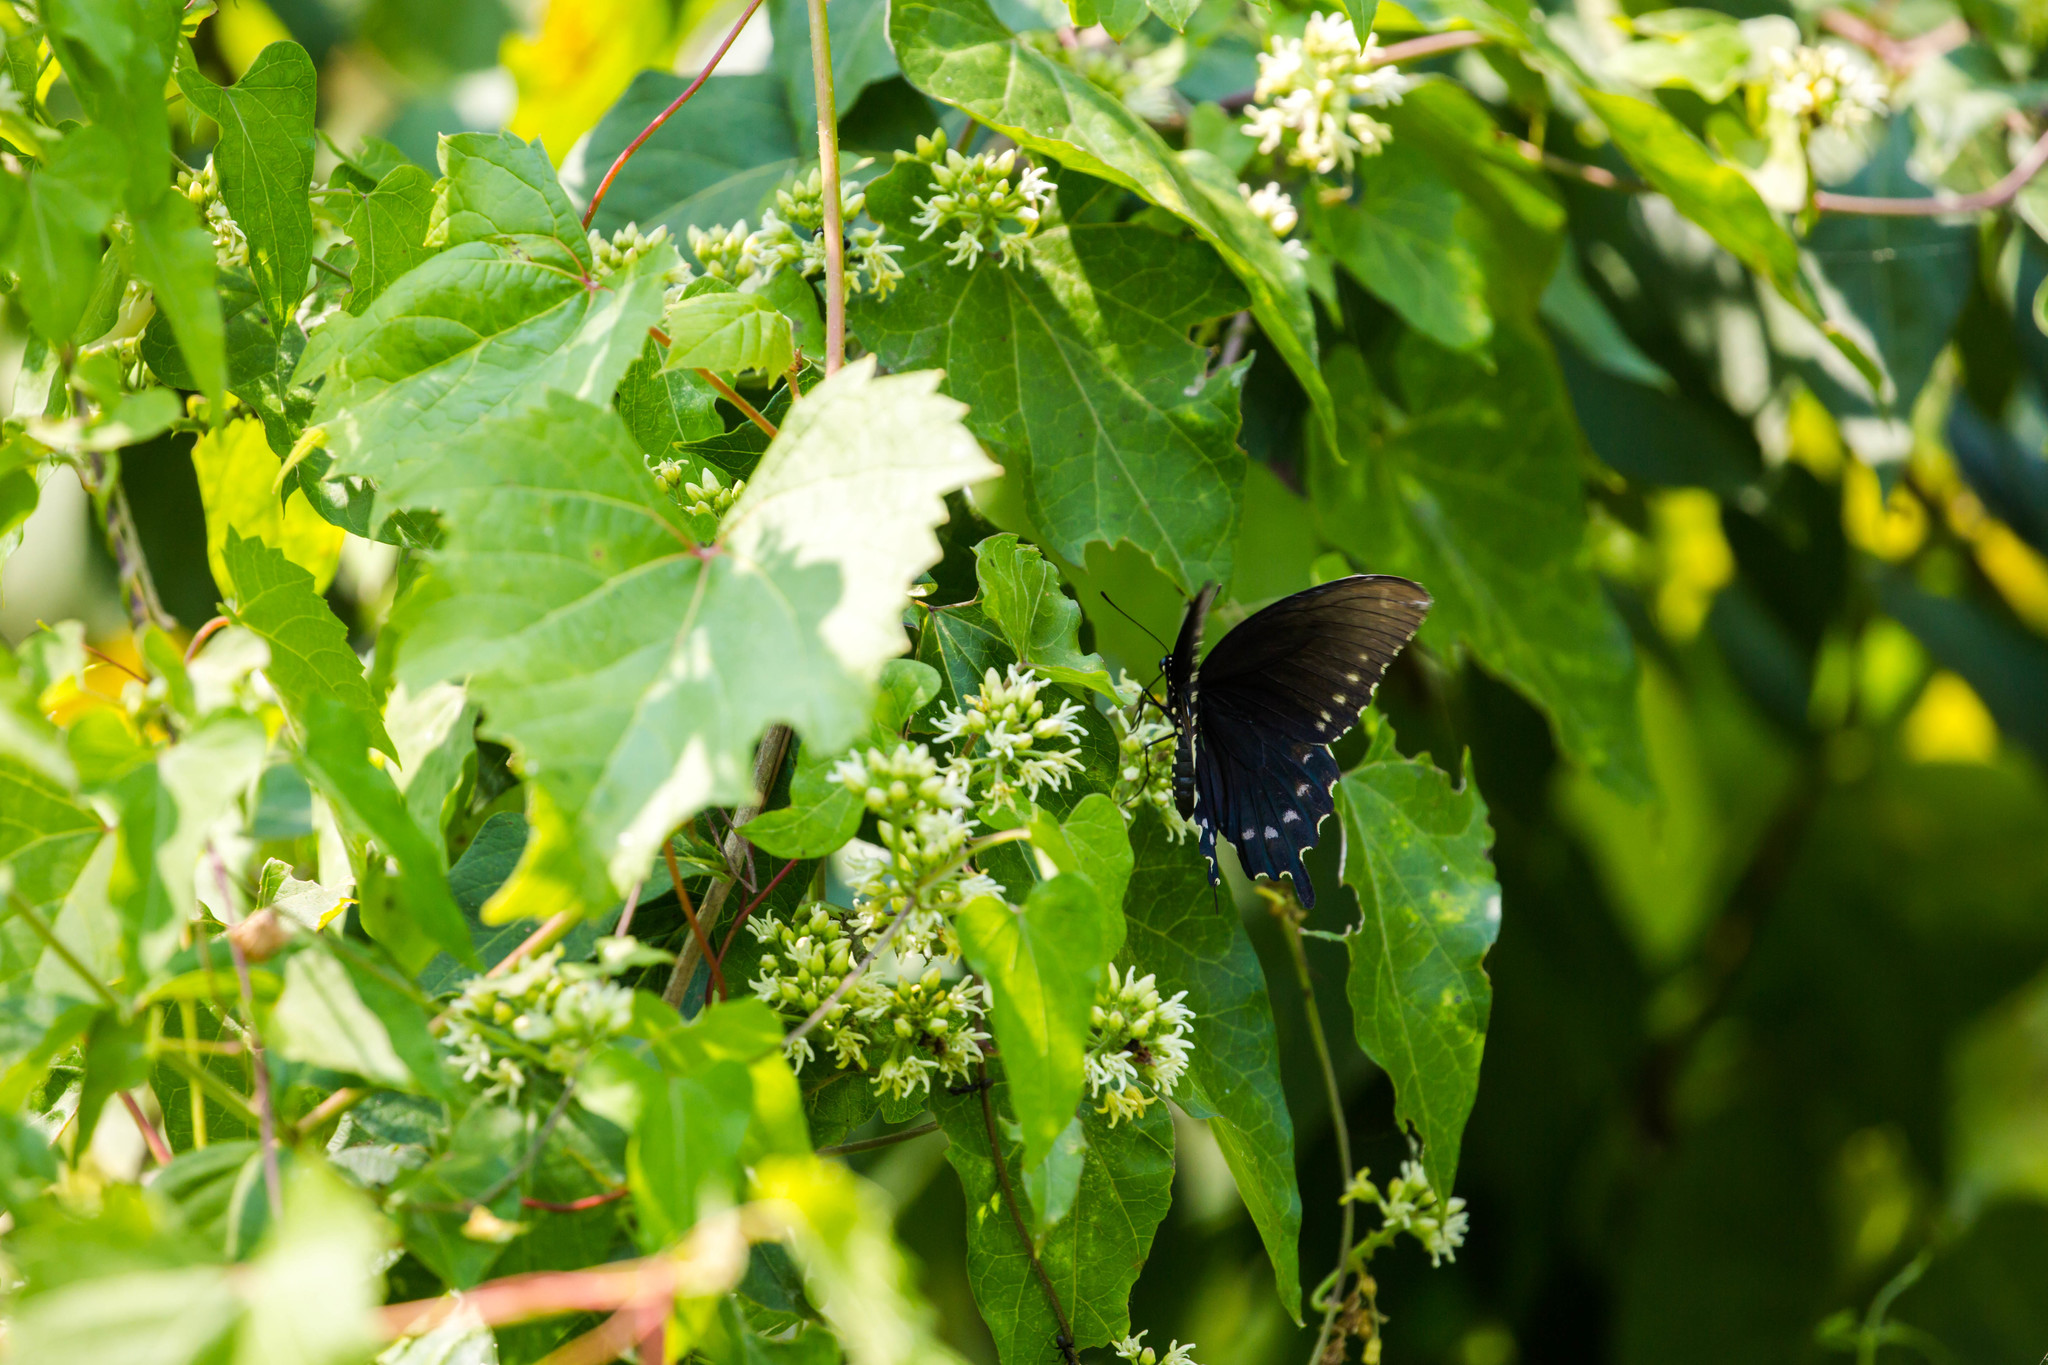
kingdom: Animalia
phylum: Arthropoda
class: Insecta
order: Lepidoptera
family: Papilionidae
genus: Battus
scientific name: Battus philenor
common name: Pipevine swallowtail
